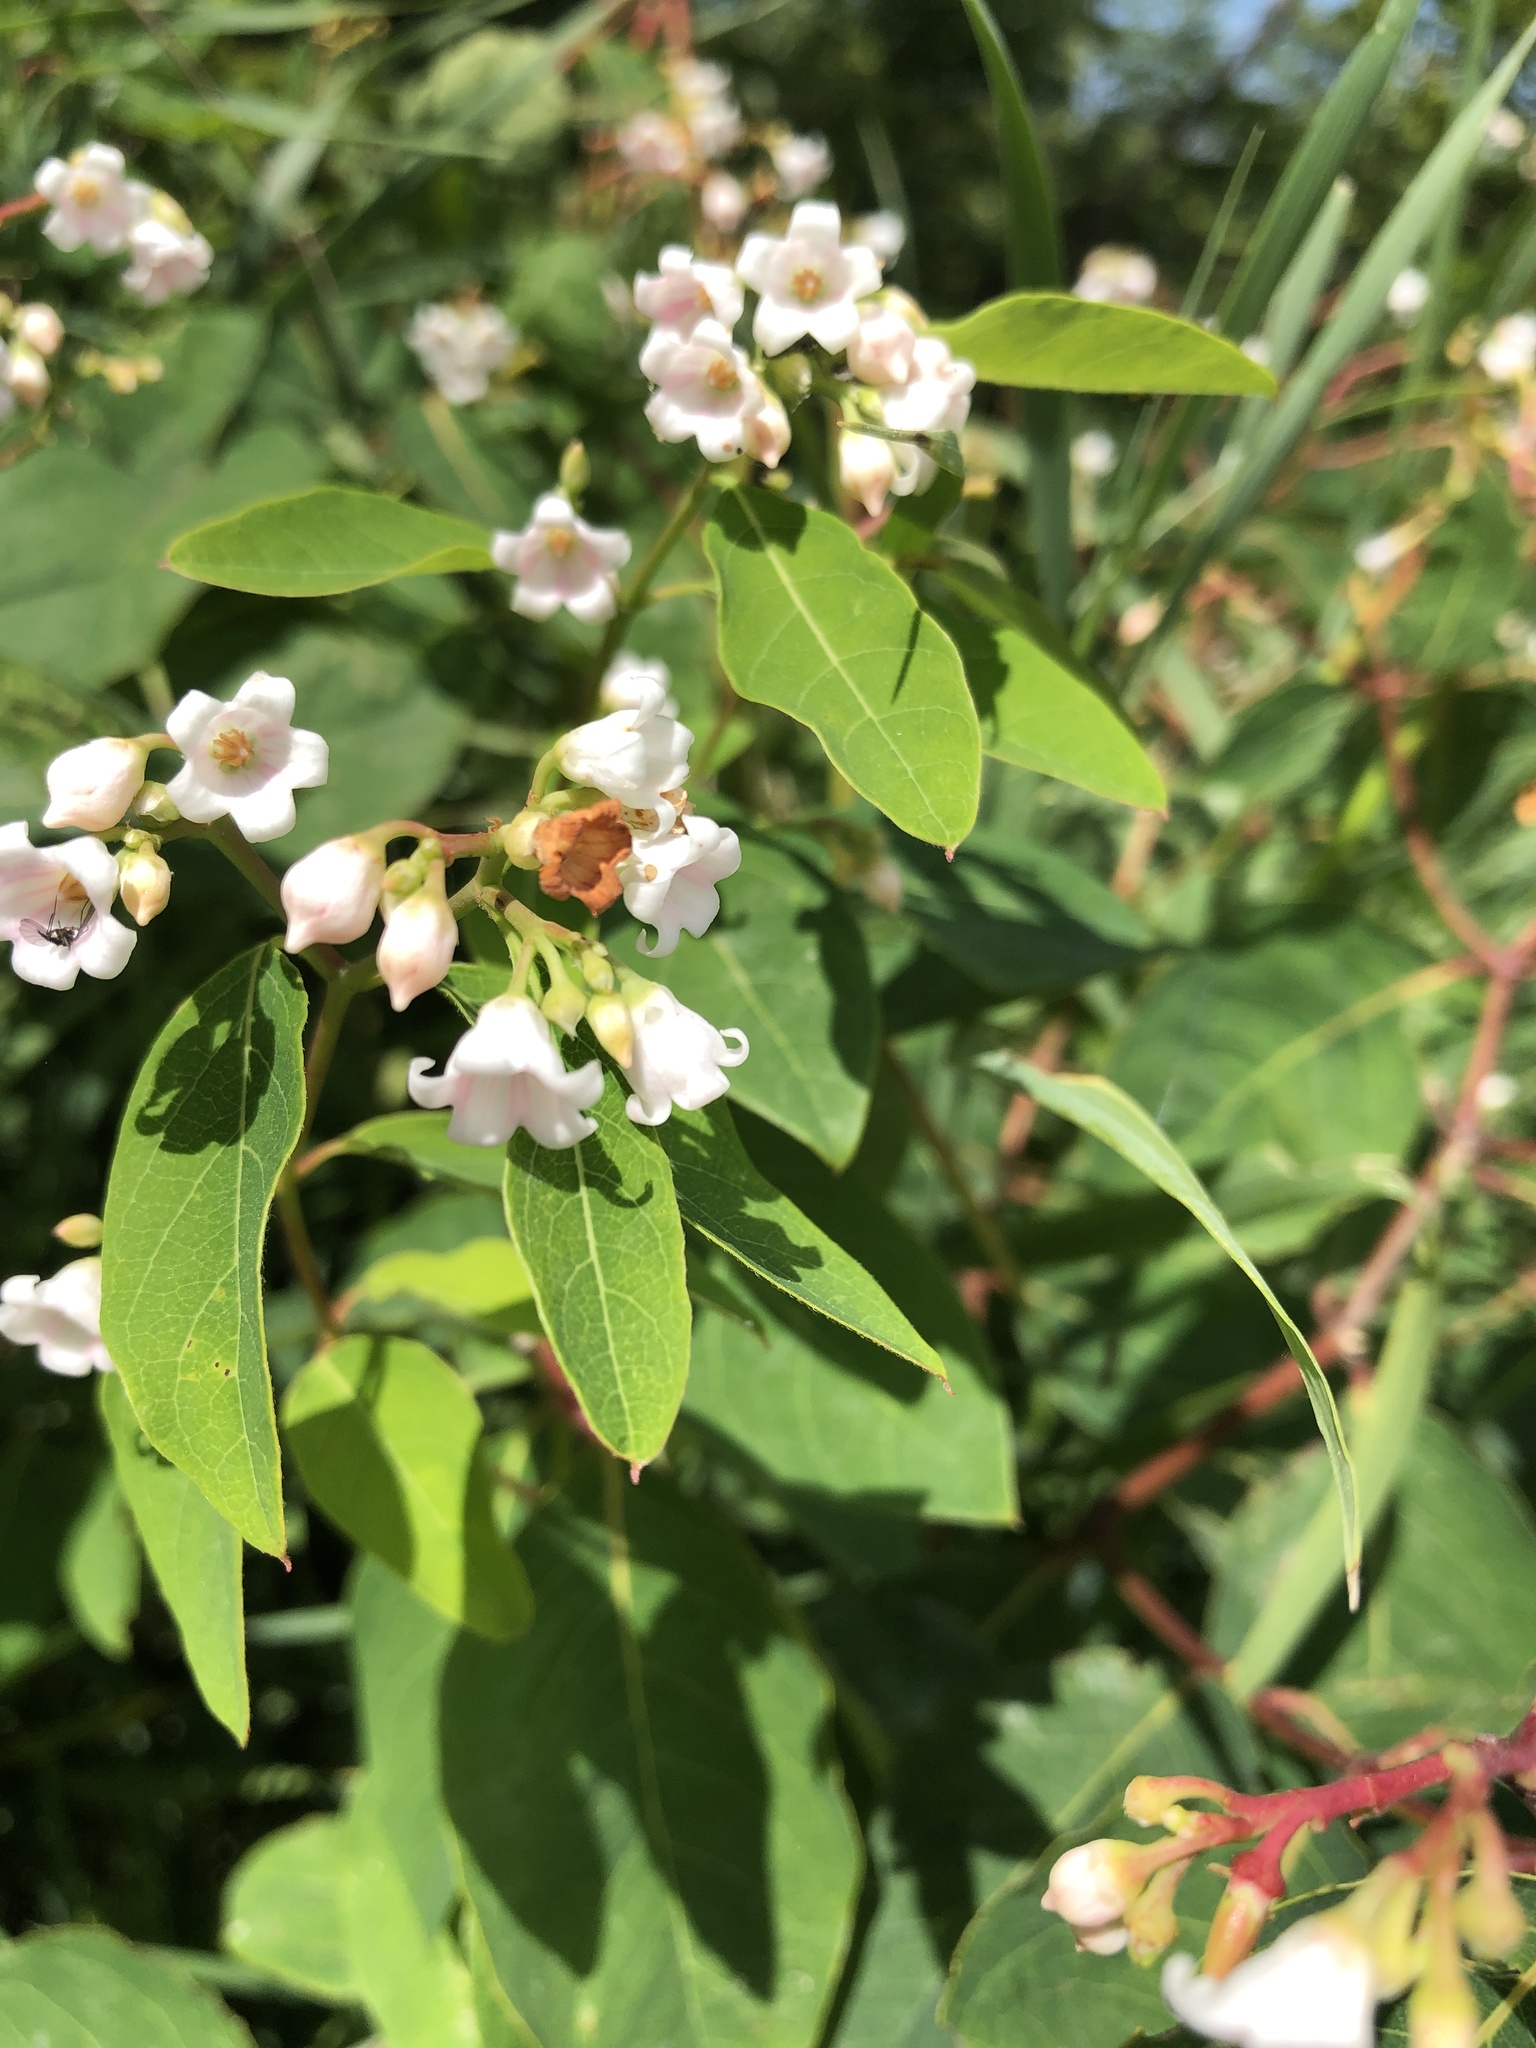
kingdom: Plantae
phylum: Tracheophyta
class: Magnoliopsida
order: Gentianales
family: Apocynaceae
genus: Apocynum
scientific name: Apocynum androsaemifolium
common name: Spreading dogbane
